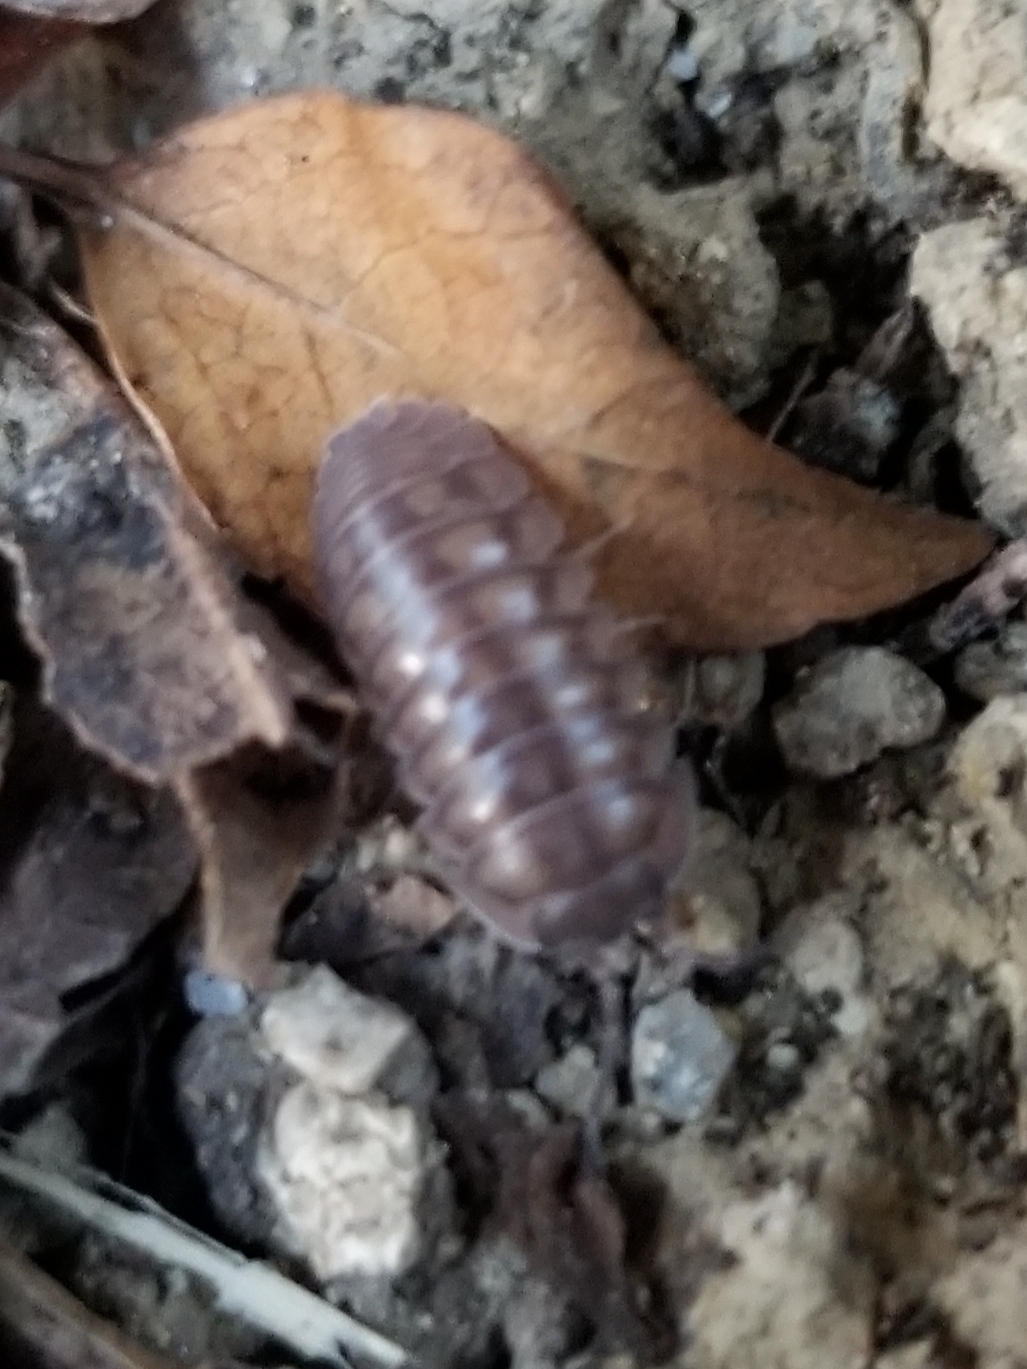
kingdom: Animalia
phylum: Arthropoda
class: Malacostraca
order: Isopoda
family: Armadillidiidae
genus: Armadillidium
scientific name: Armadillidium nasatum
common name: Isopod
